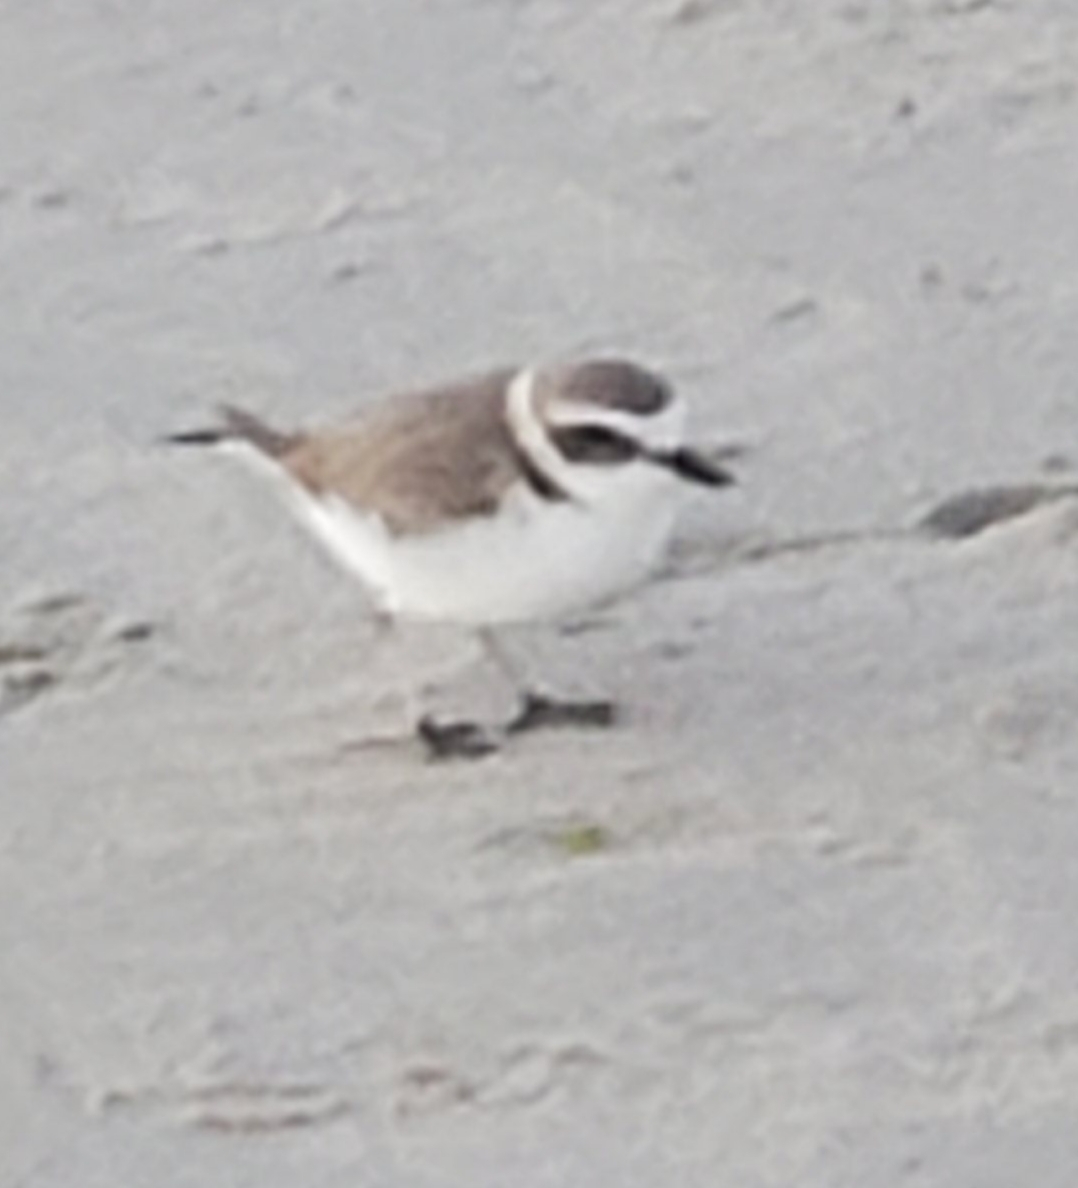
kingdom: Animalia
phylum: Chordata
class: Aves
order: Charadriiformes
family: Charadriidae
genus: Anarhynchus
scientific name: Anarhynchus
